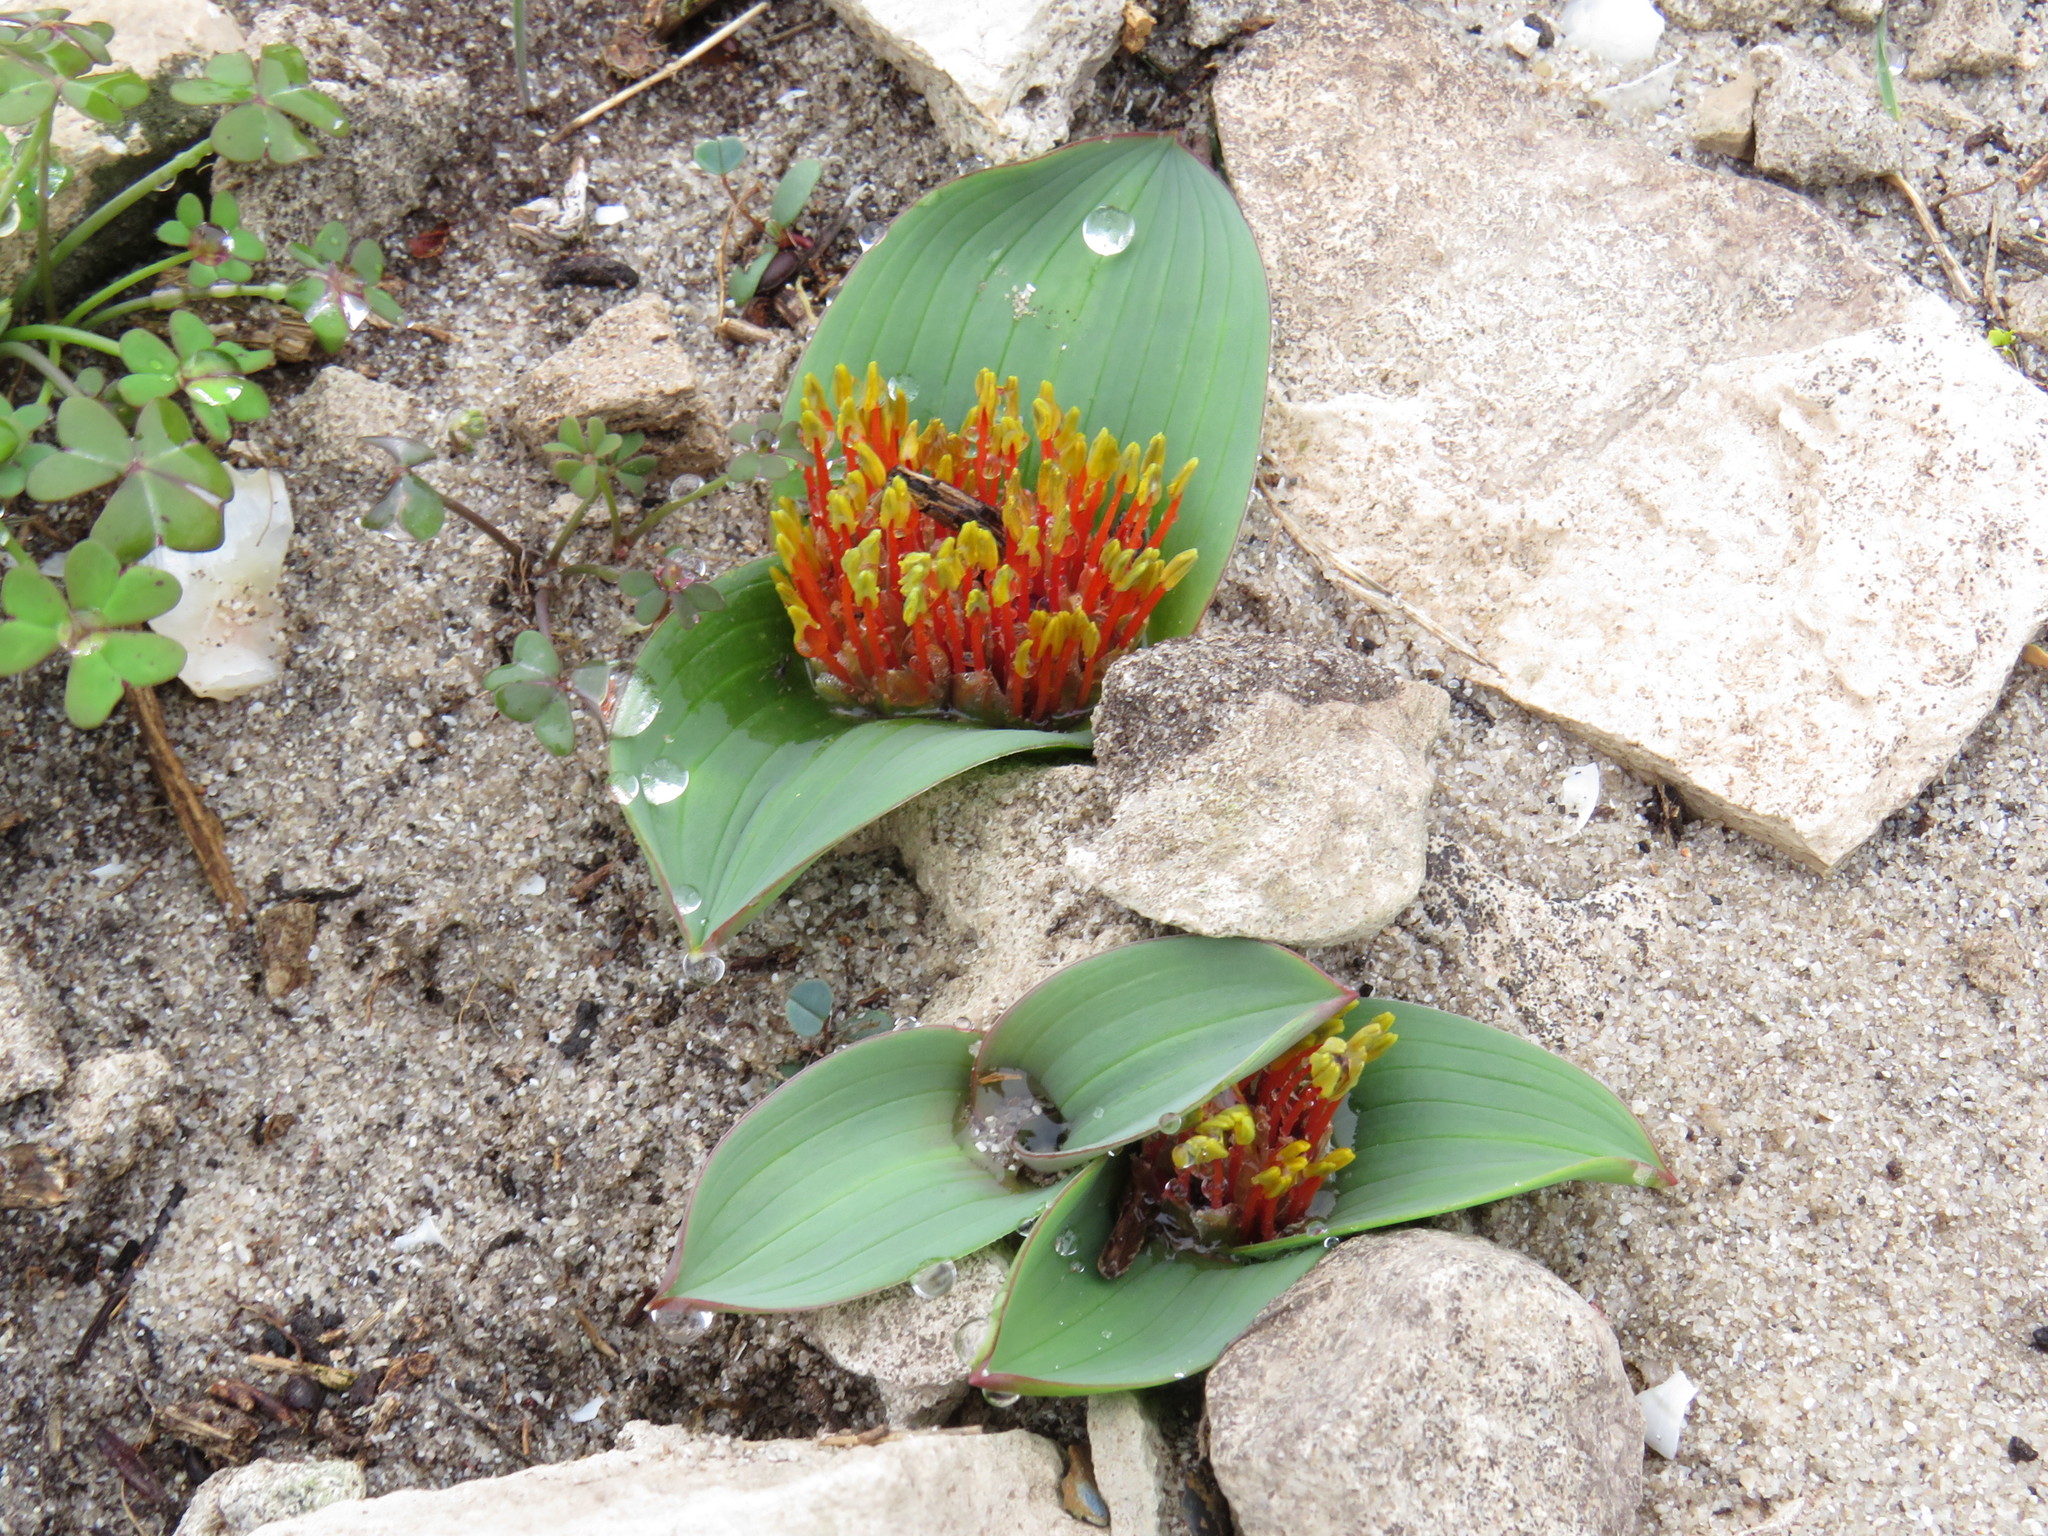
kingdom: Plantae
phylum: Tracheophyta
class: Liliopsida
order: Asparagales
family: Asparagaceae
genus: Daubenya
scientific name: Daubenya zeyheri
